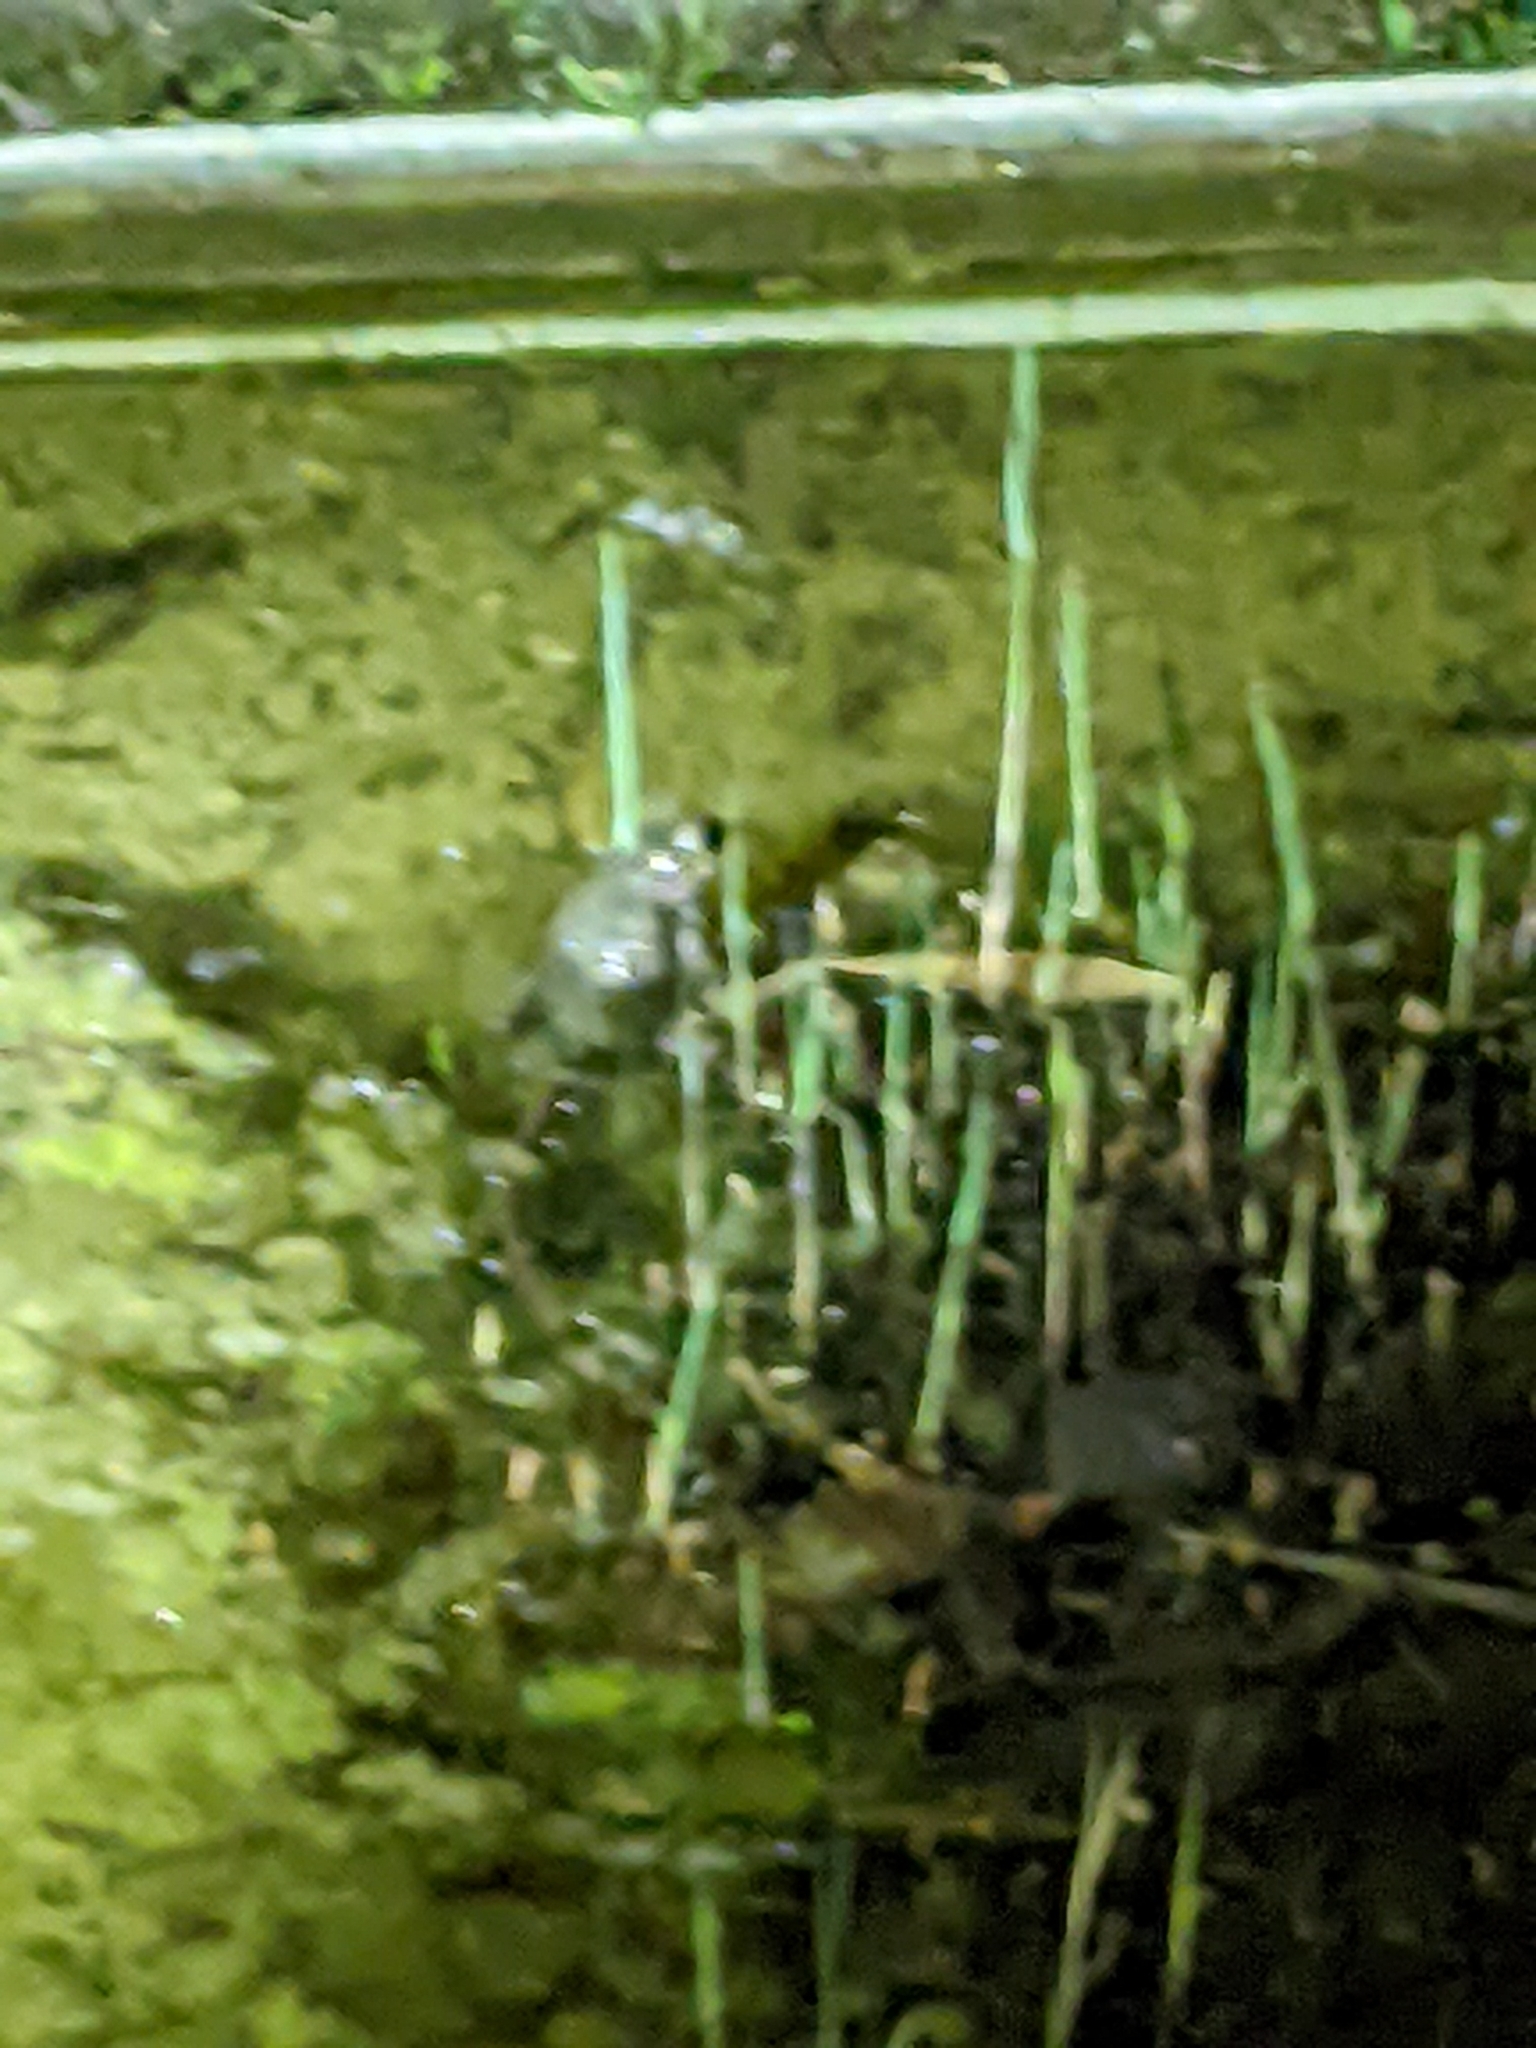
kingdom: Animalia
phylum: Chordata
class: Amphibia
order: Anura
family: Bufonidae
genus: Bufotes
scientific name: Bufotes viridis
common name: European green toad
